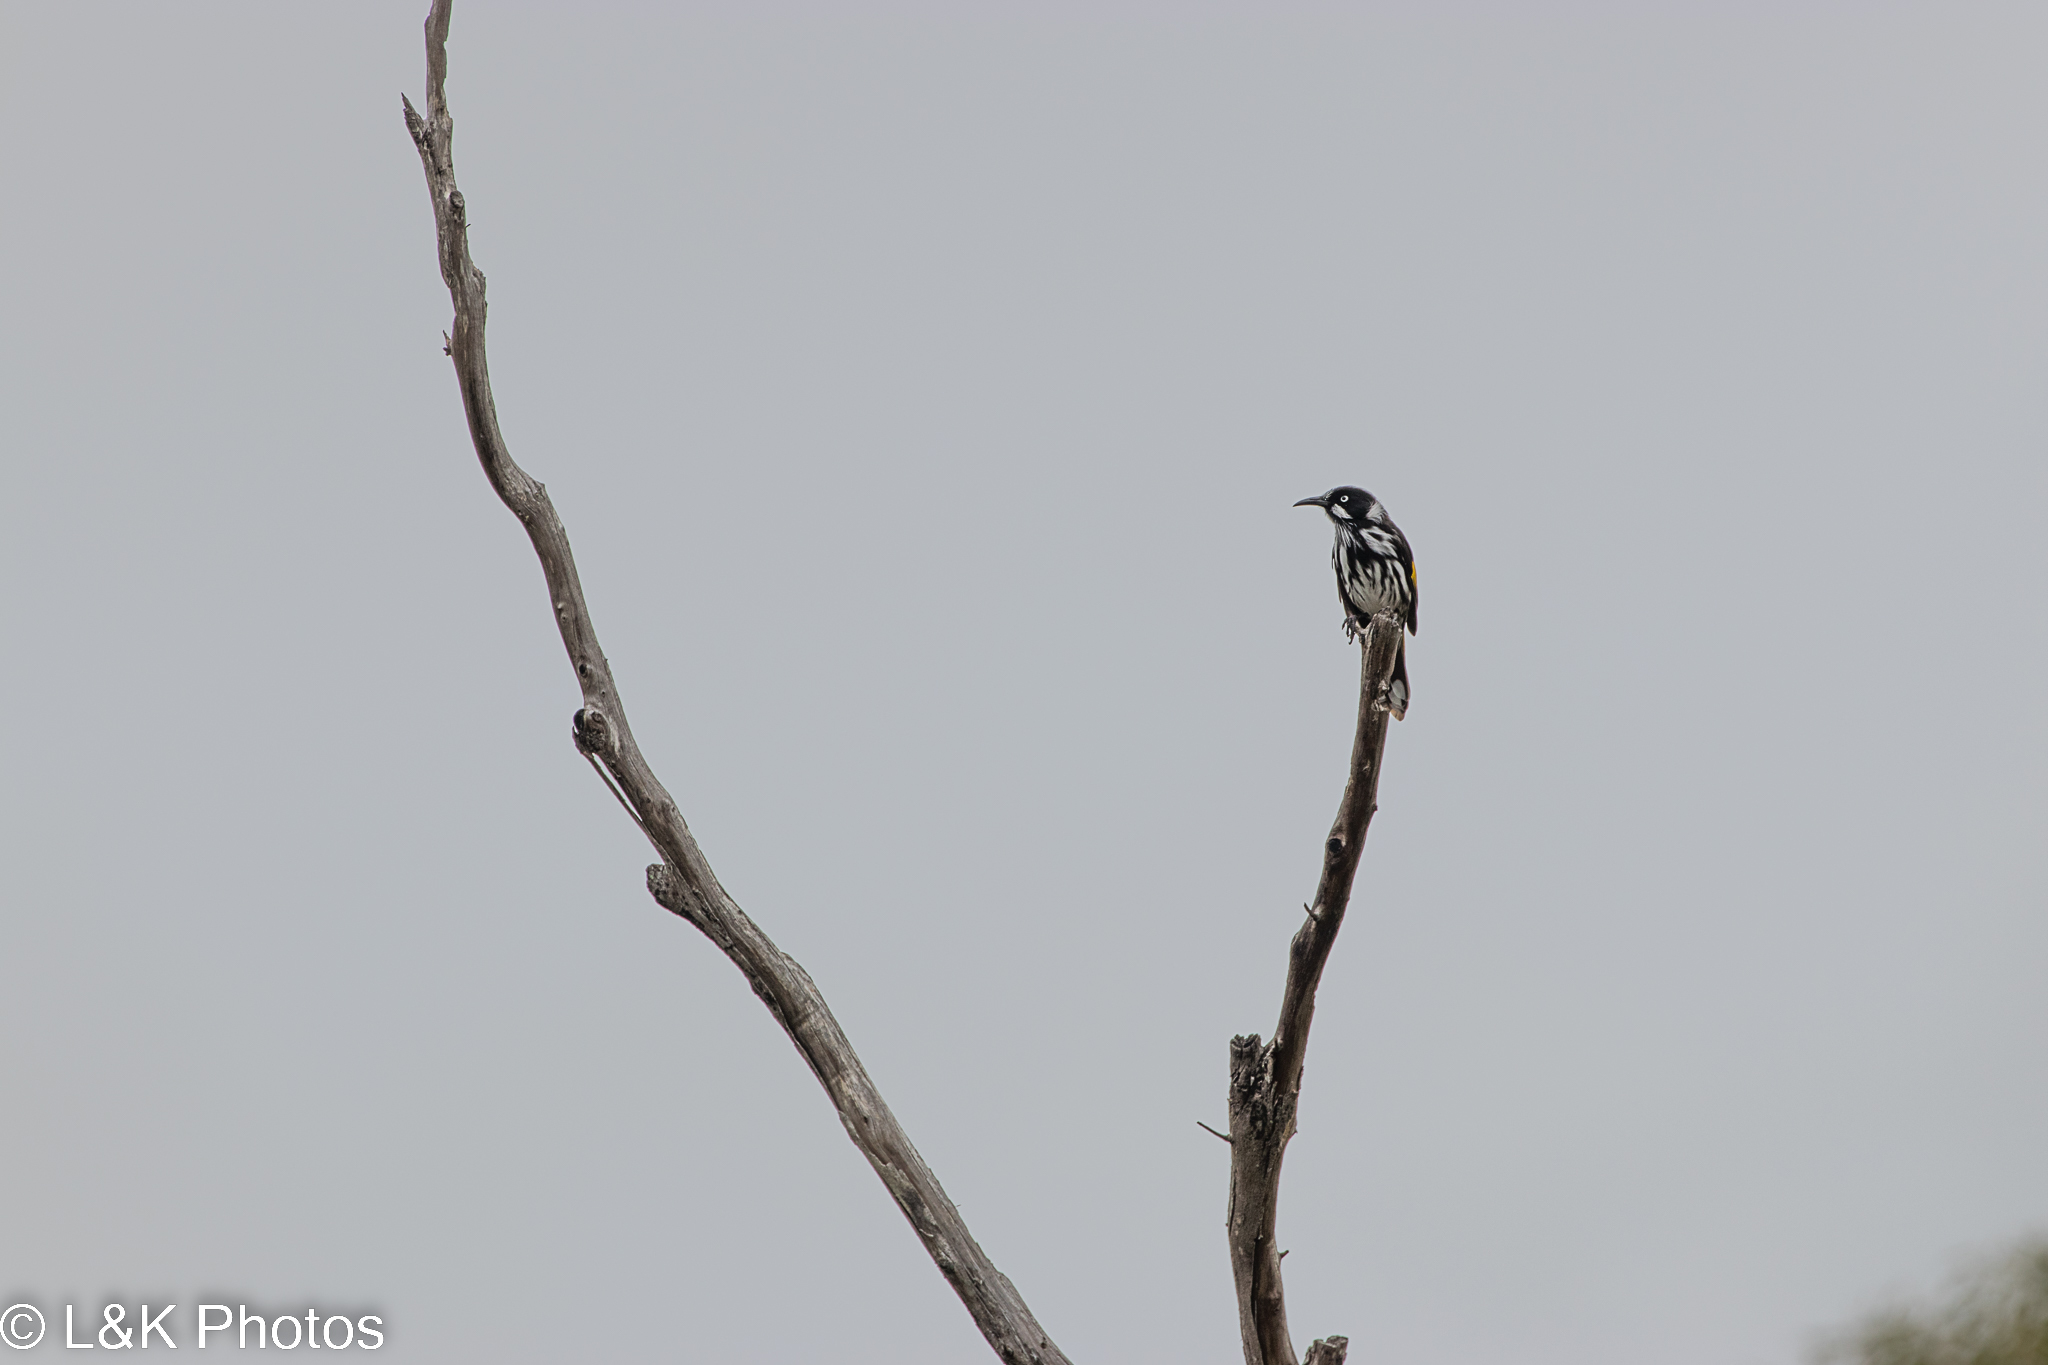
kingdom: Animalia
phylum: Chordata
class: Aves
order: Passeriformes
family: Meliphagidae
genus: Phylidonyris
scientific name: Phylidonyris novaehollandiae
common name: New holland honeyeater
